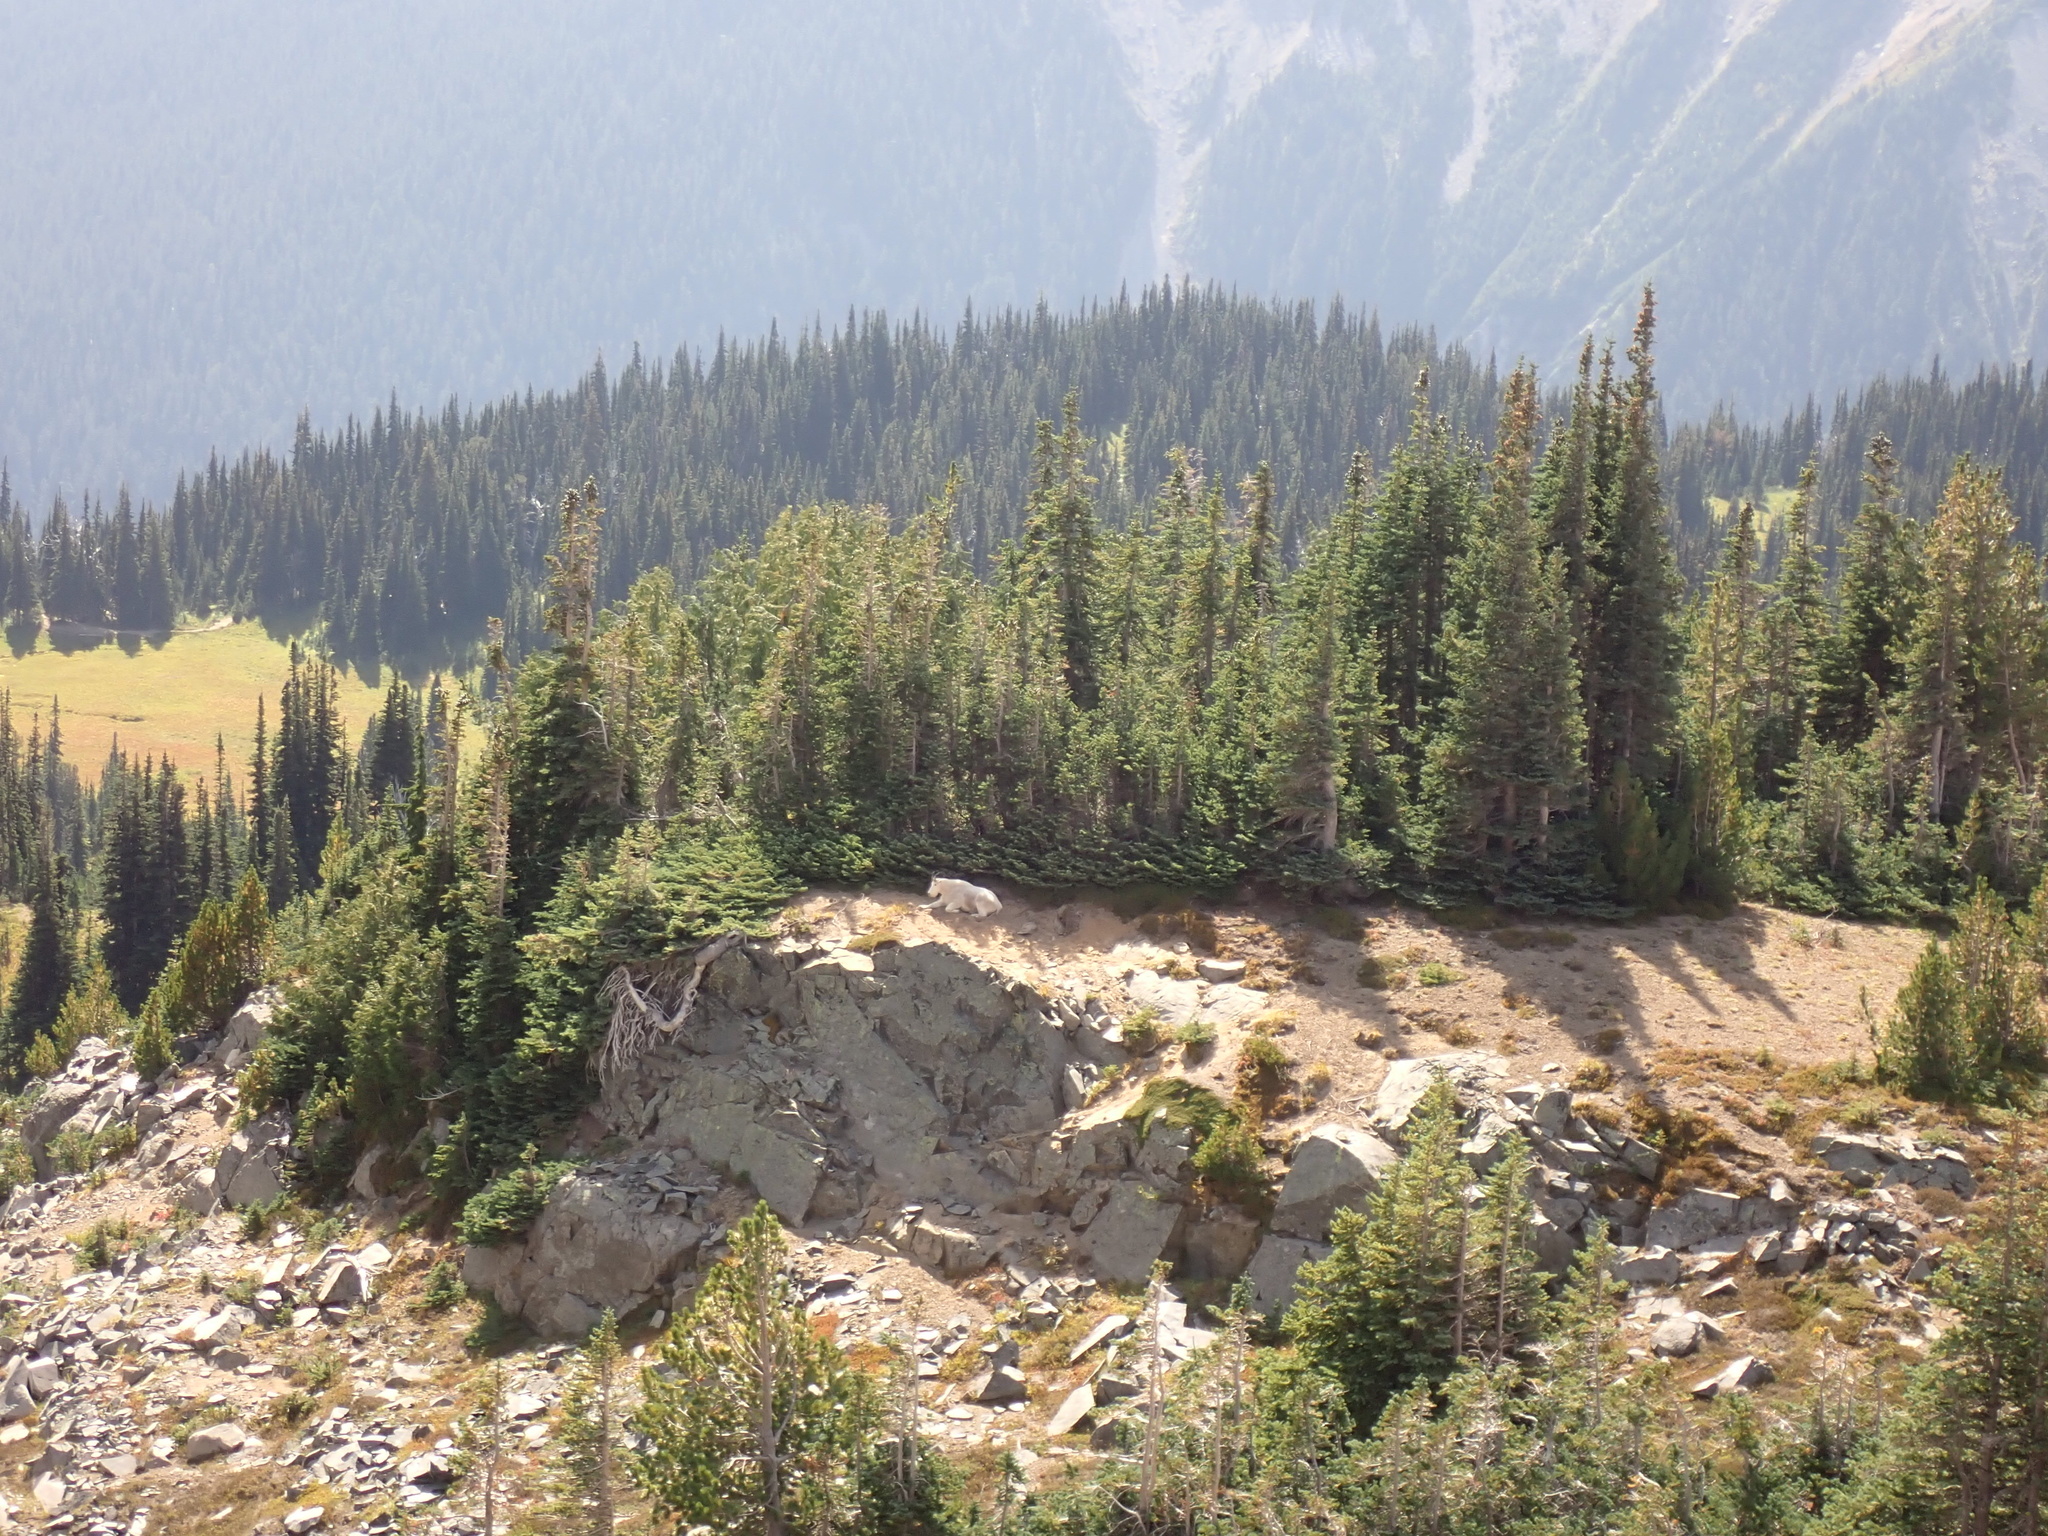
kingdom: Animalia
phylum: Chordata
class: Mammalia
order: Artiodactyla
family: Bovidae
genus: Oreamnos
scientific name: Oreamnos americanus
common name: Mountain goat
